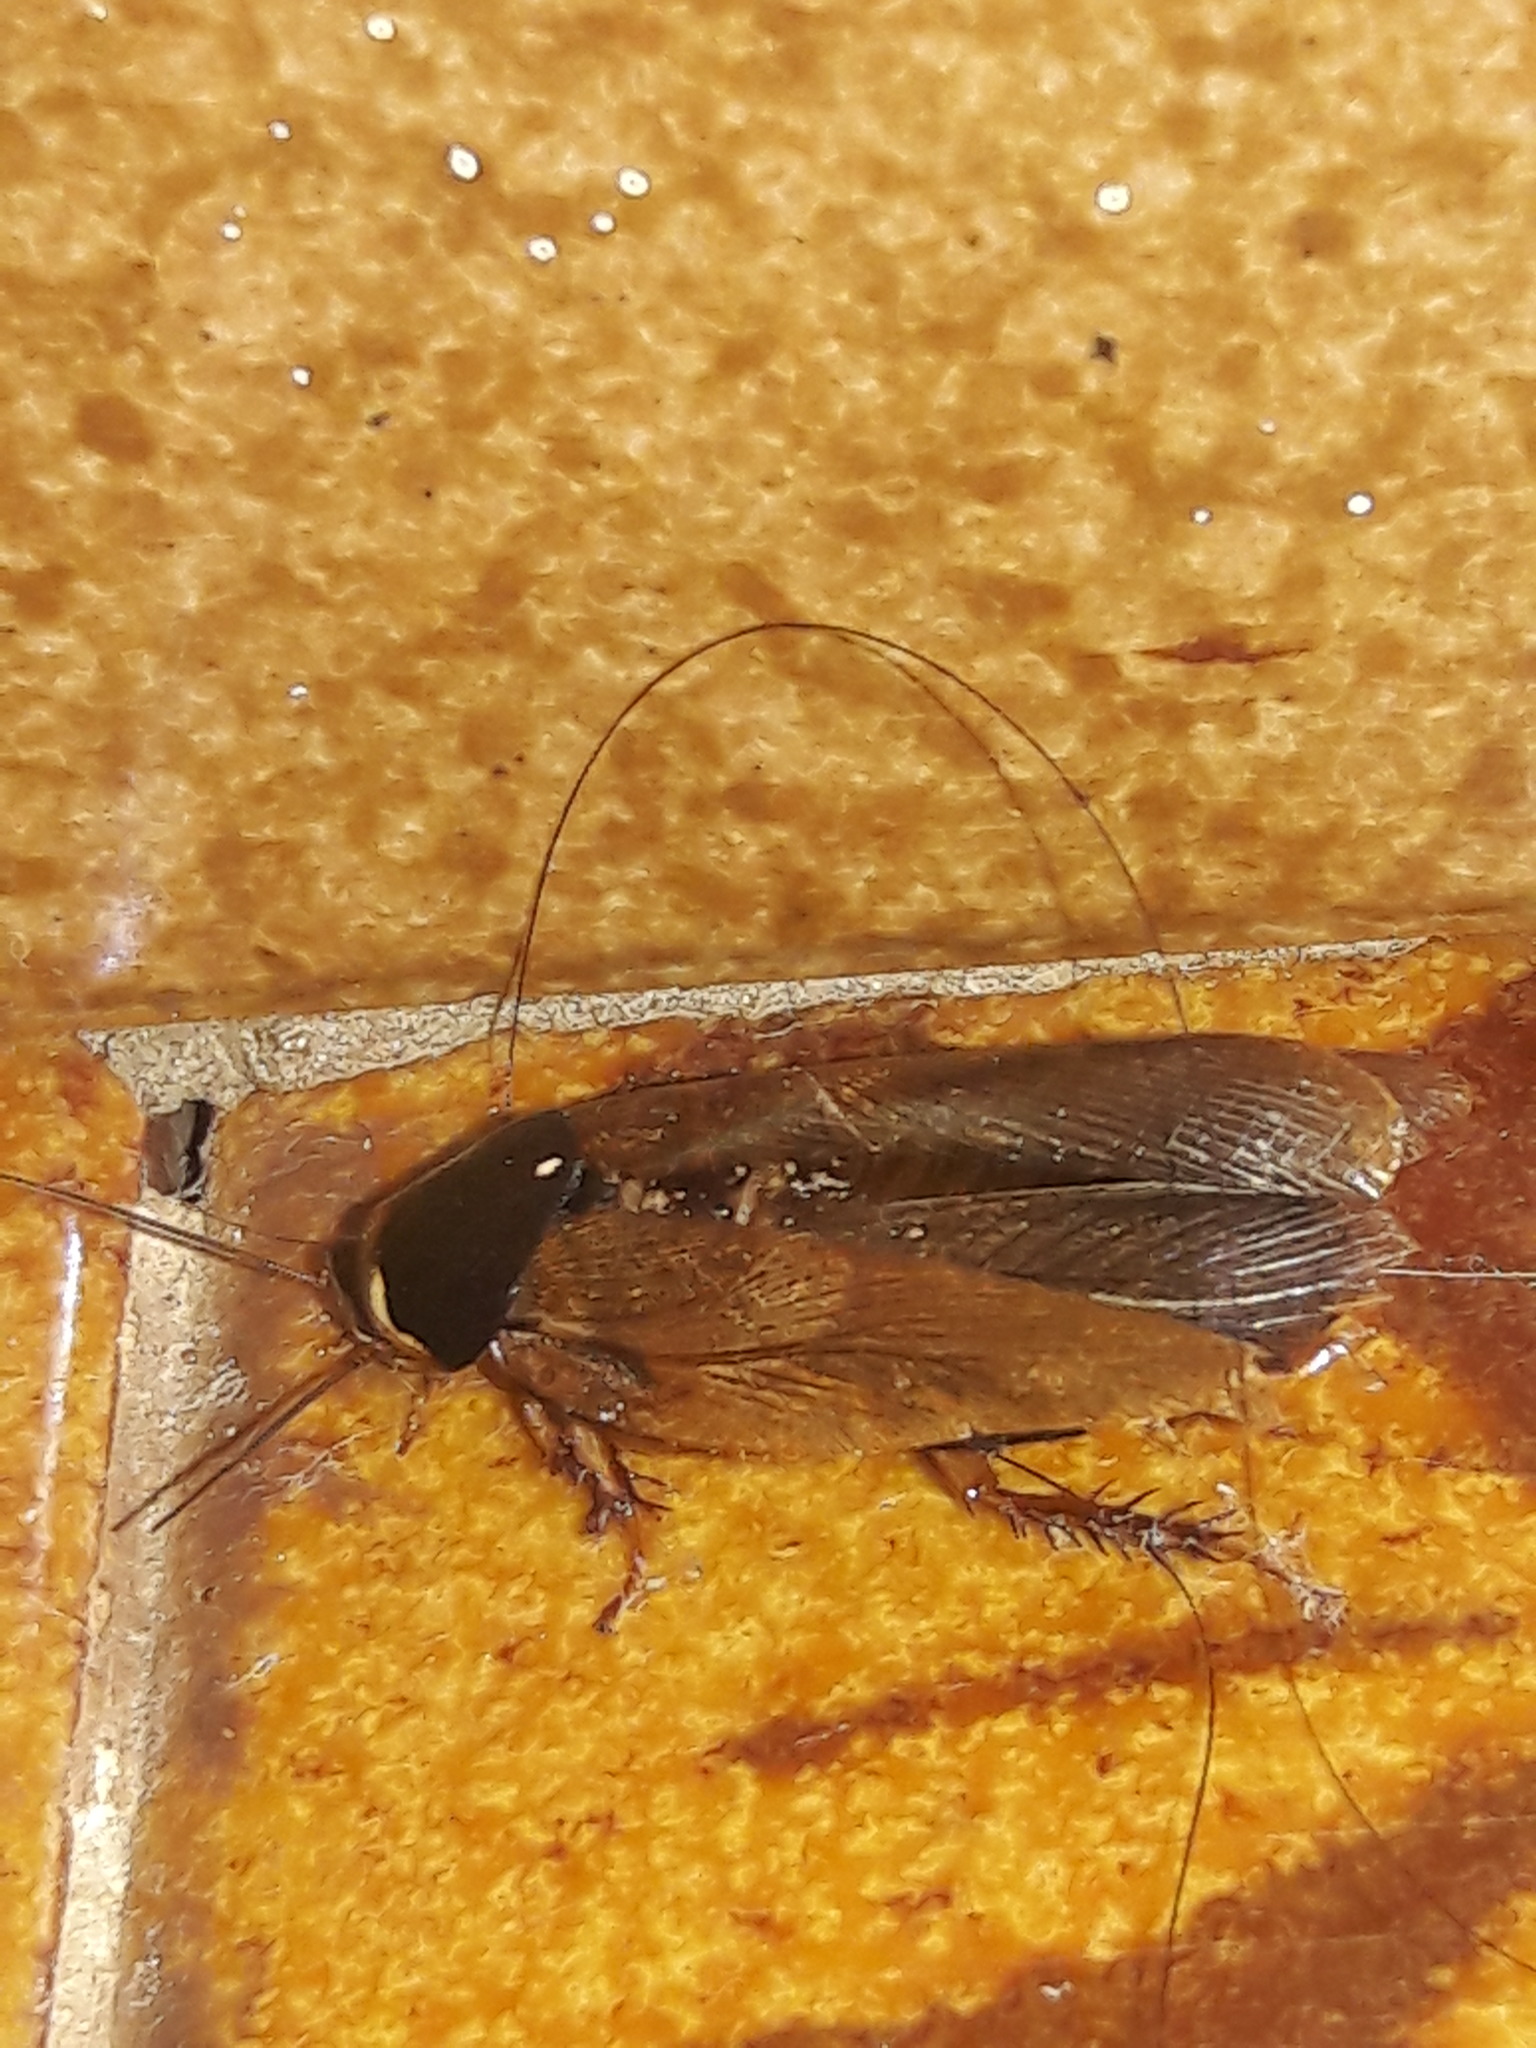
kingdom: Animalia
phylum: Arthropoda
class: Insecta
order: Blattodea
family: Blaberidae
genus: Pycnoscelus
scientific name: Pycnoscelus surinamensis
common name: Surinam cockroach
